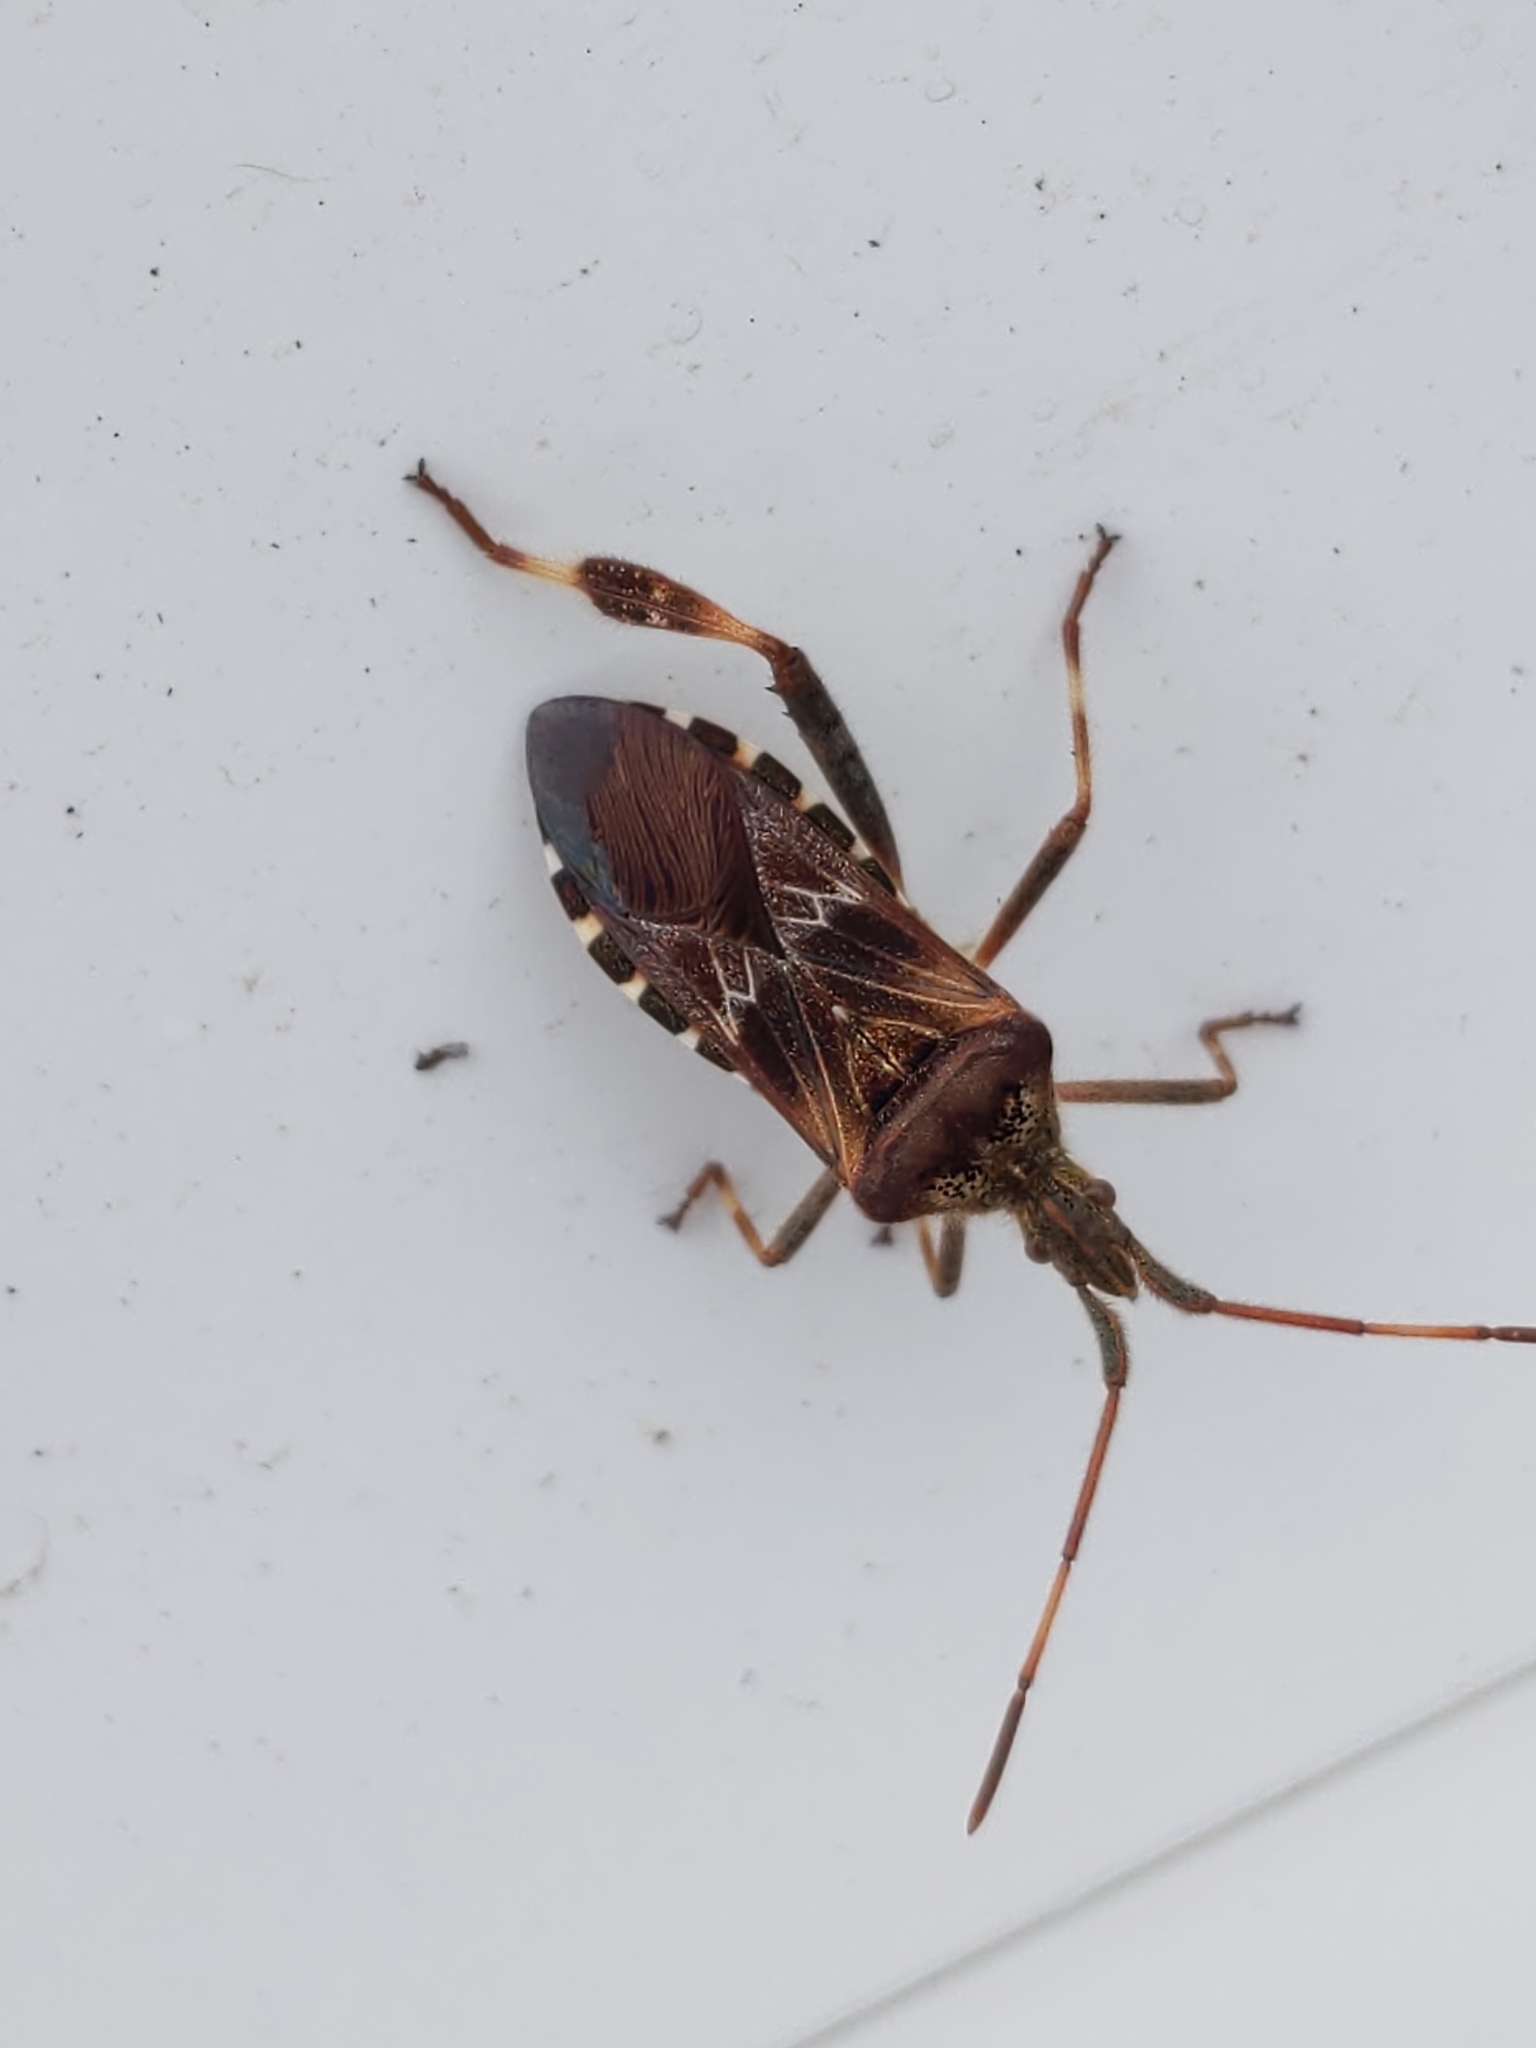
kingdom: Animalia
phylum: Arthropoda
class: Insecta
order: Hemiptera
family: Coreidae
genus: Leptoglossus
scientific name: Leptoglossus occidentalis
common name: Western conifer-seed bug
